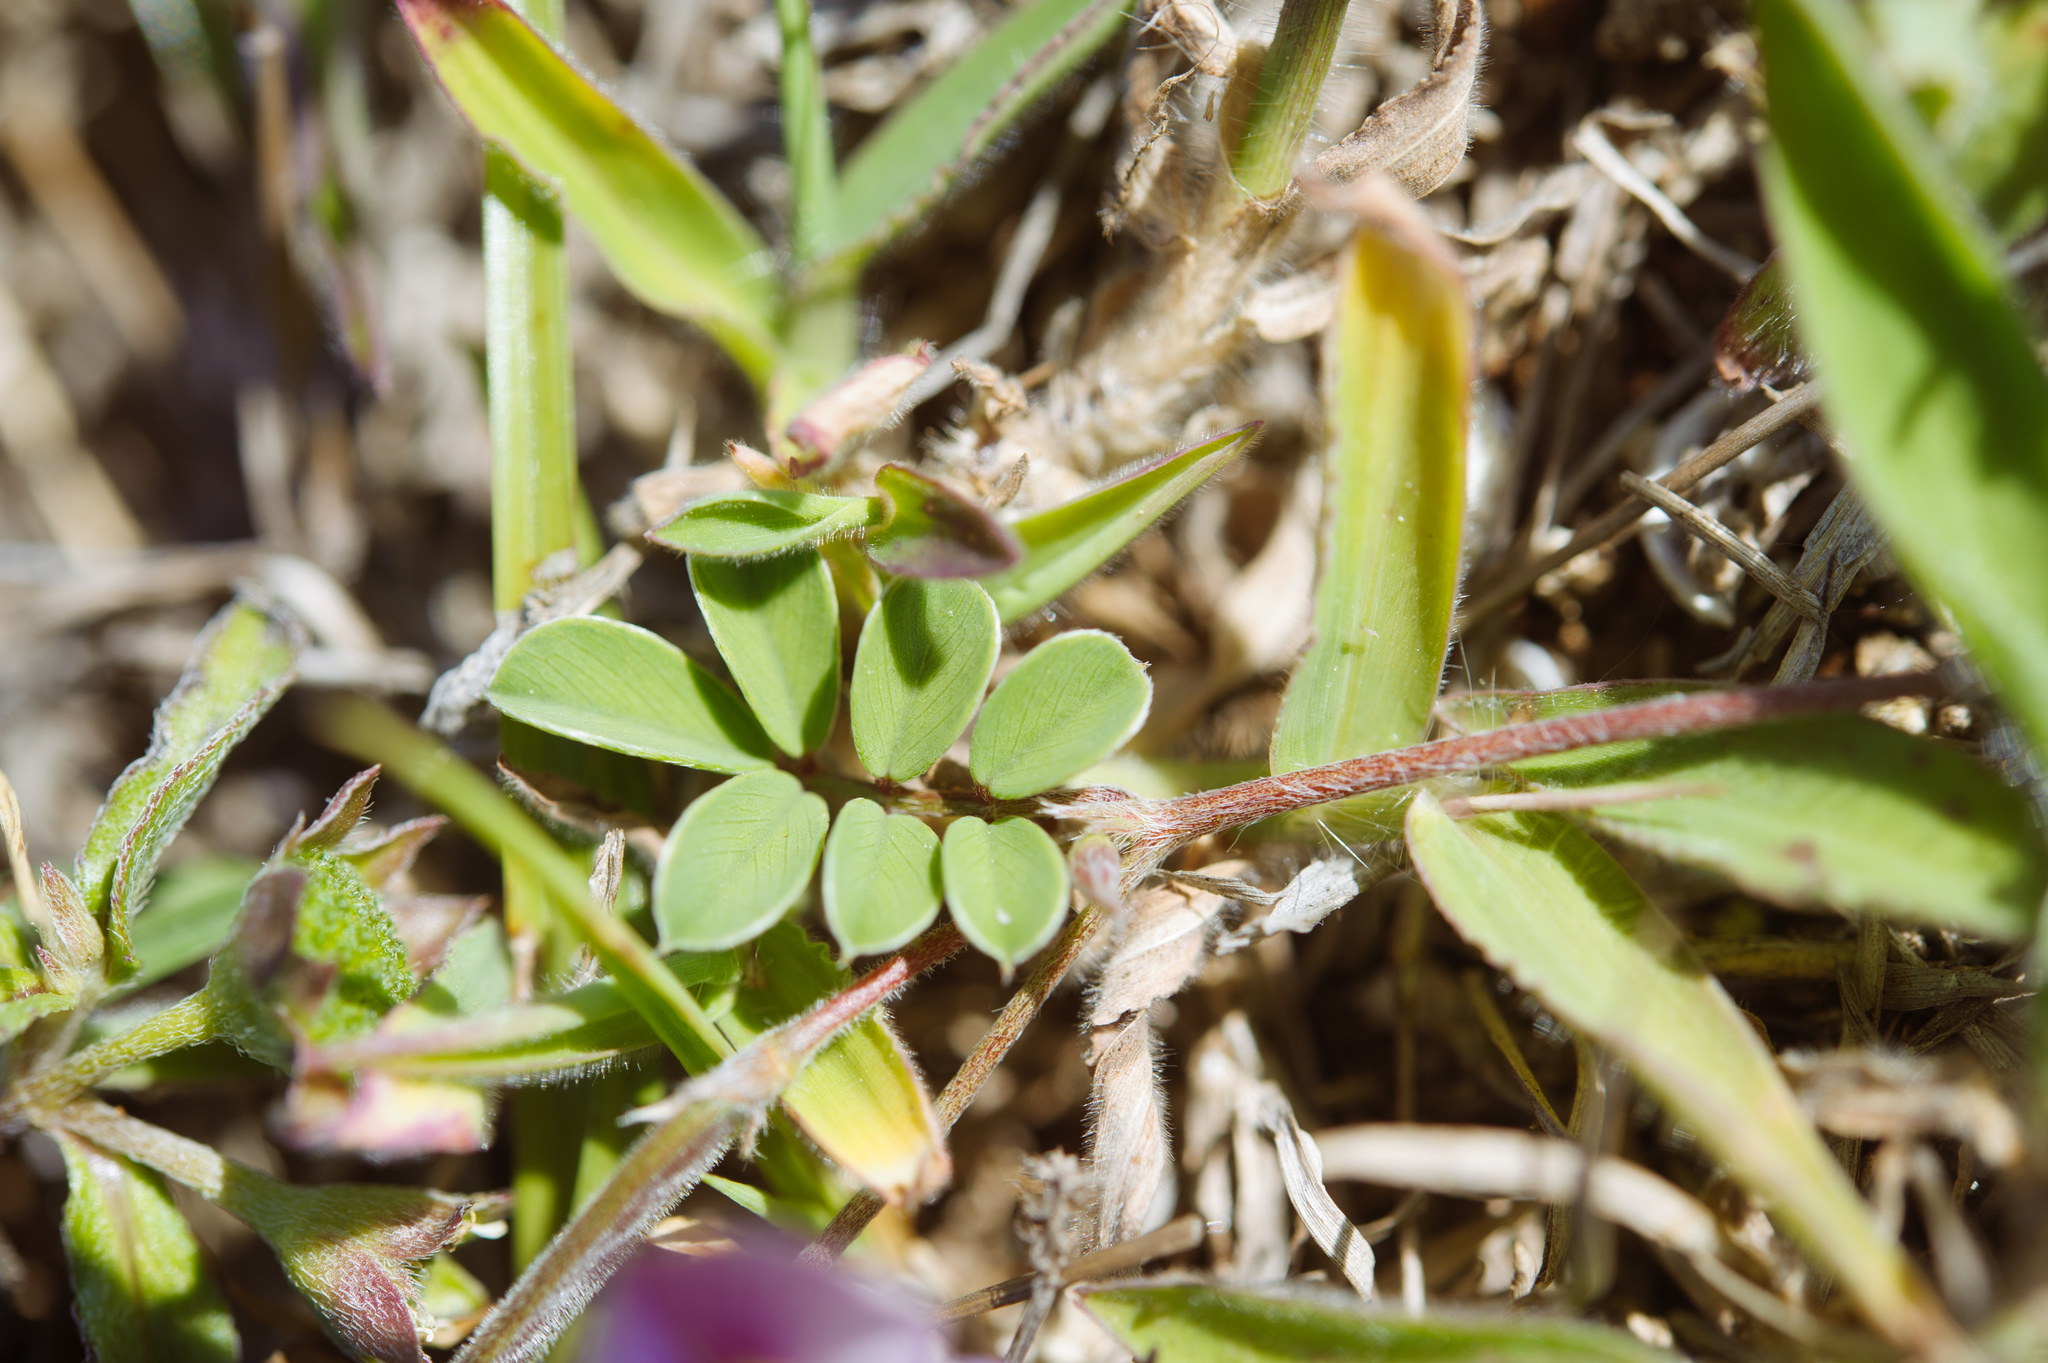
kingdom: Plantae
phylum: Tracheophyta
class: Magnoliopsida
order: Fabales
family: Fabaceae
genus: Tephrosia
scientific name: Tephrosia obovata
